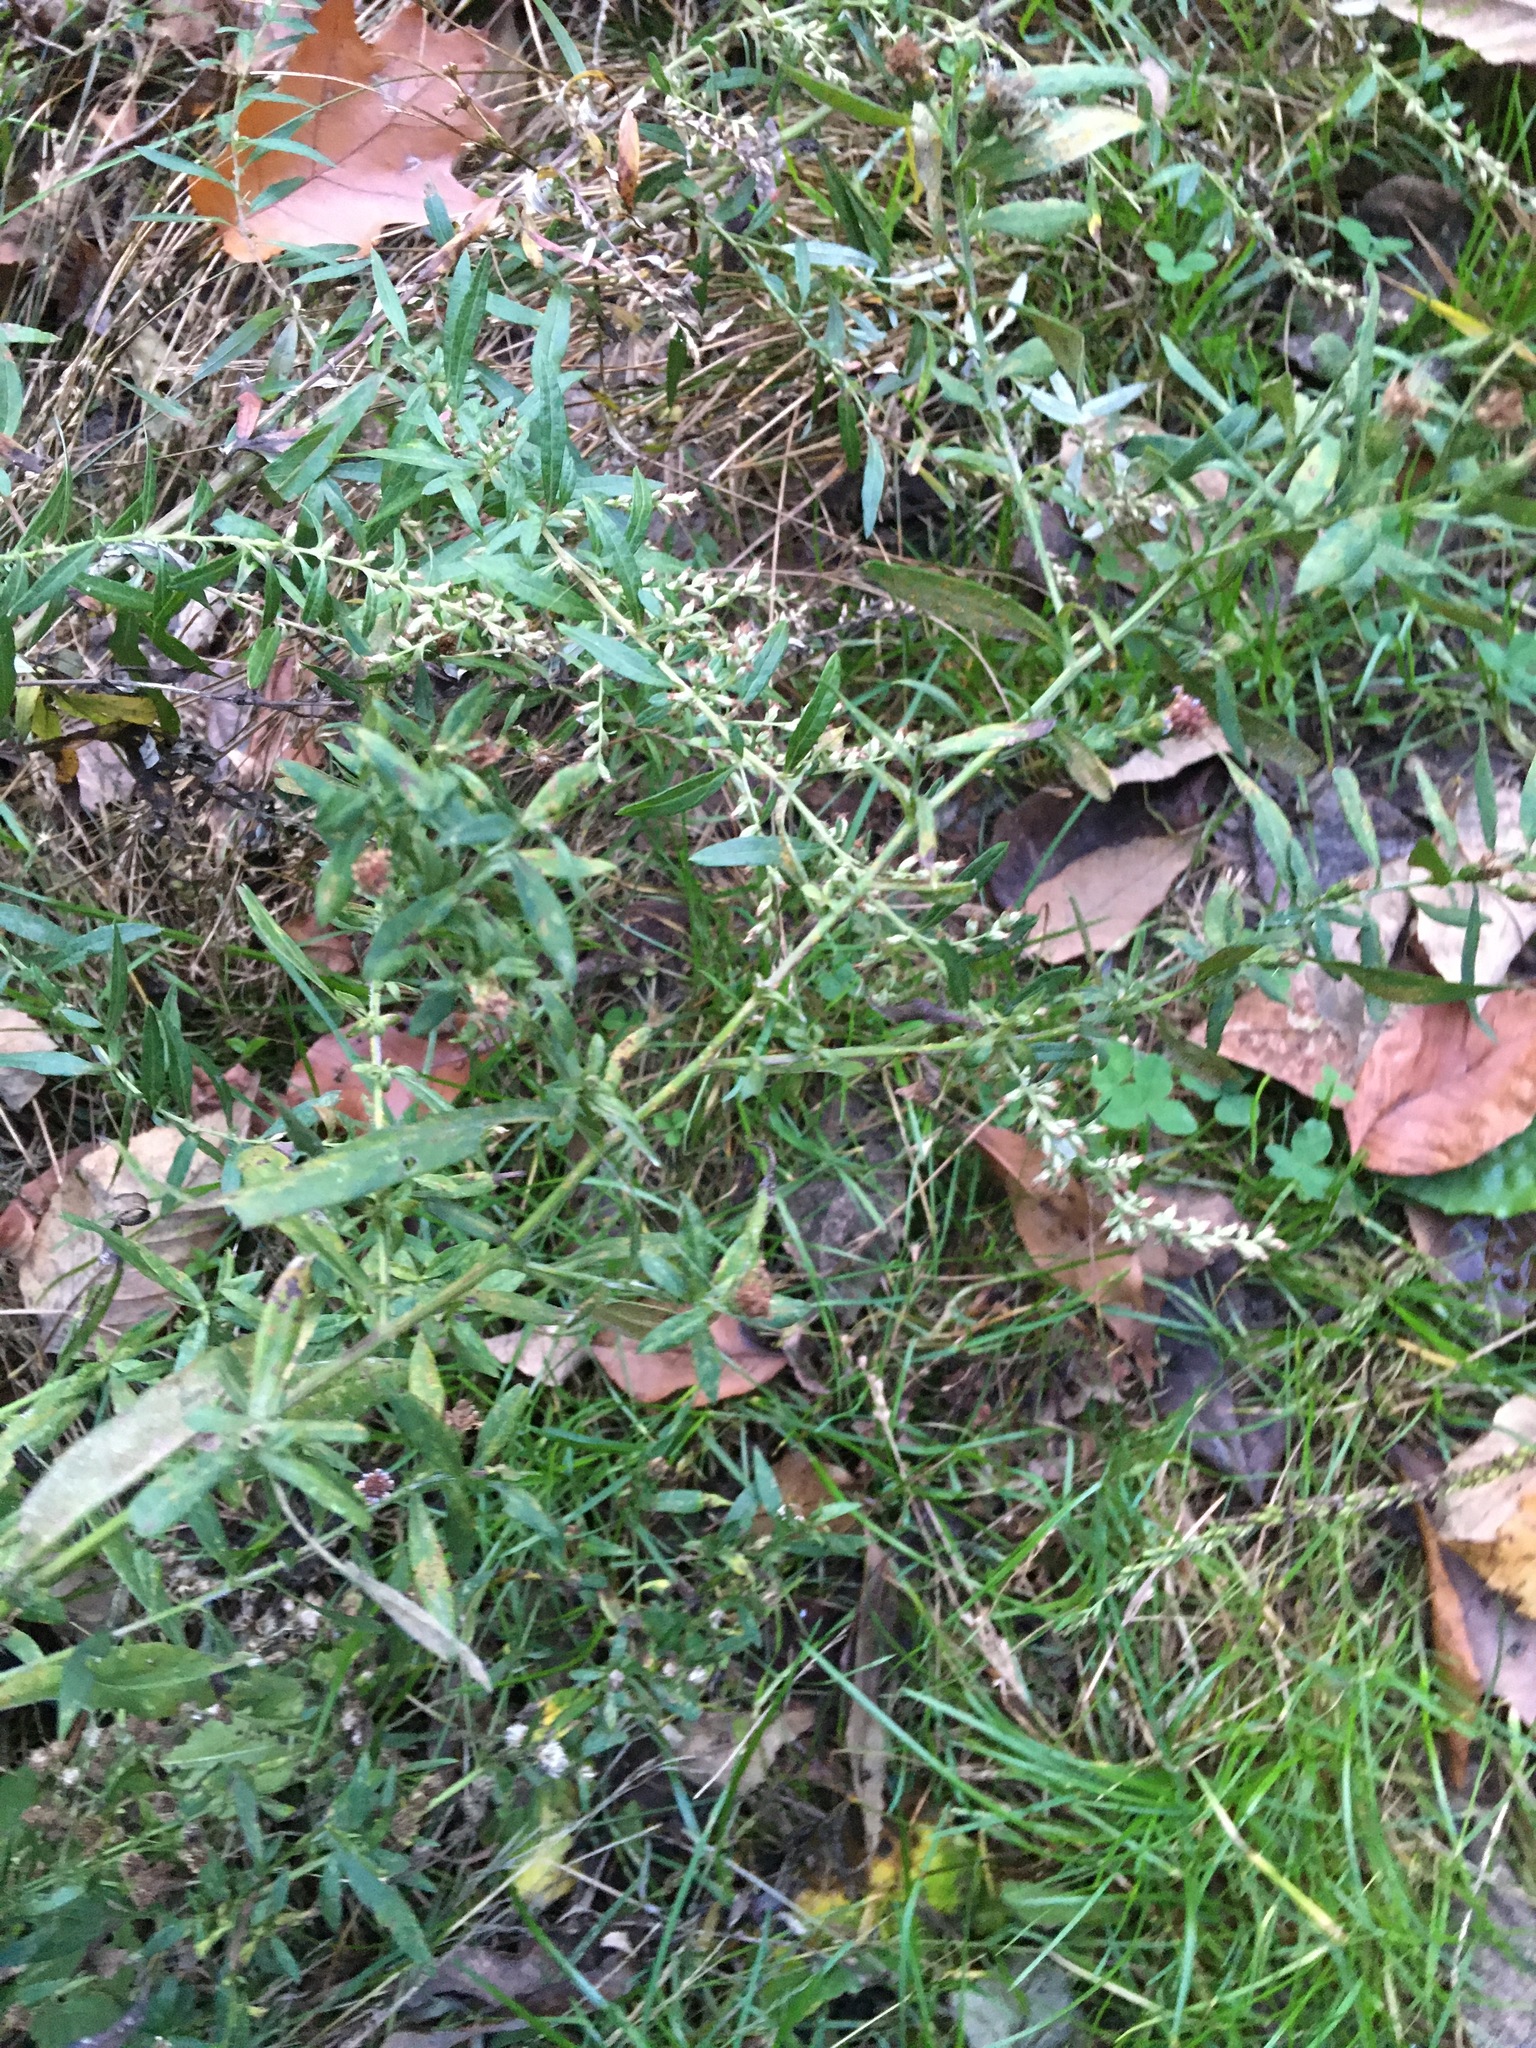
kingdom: Plantae
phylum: Tracheophyta
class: Magnoliopsida
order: Asterales
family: Asteraceae
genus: Artemisia
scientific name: Artemisia vulgaris
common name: Mugwort
